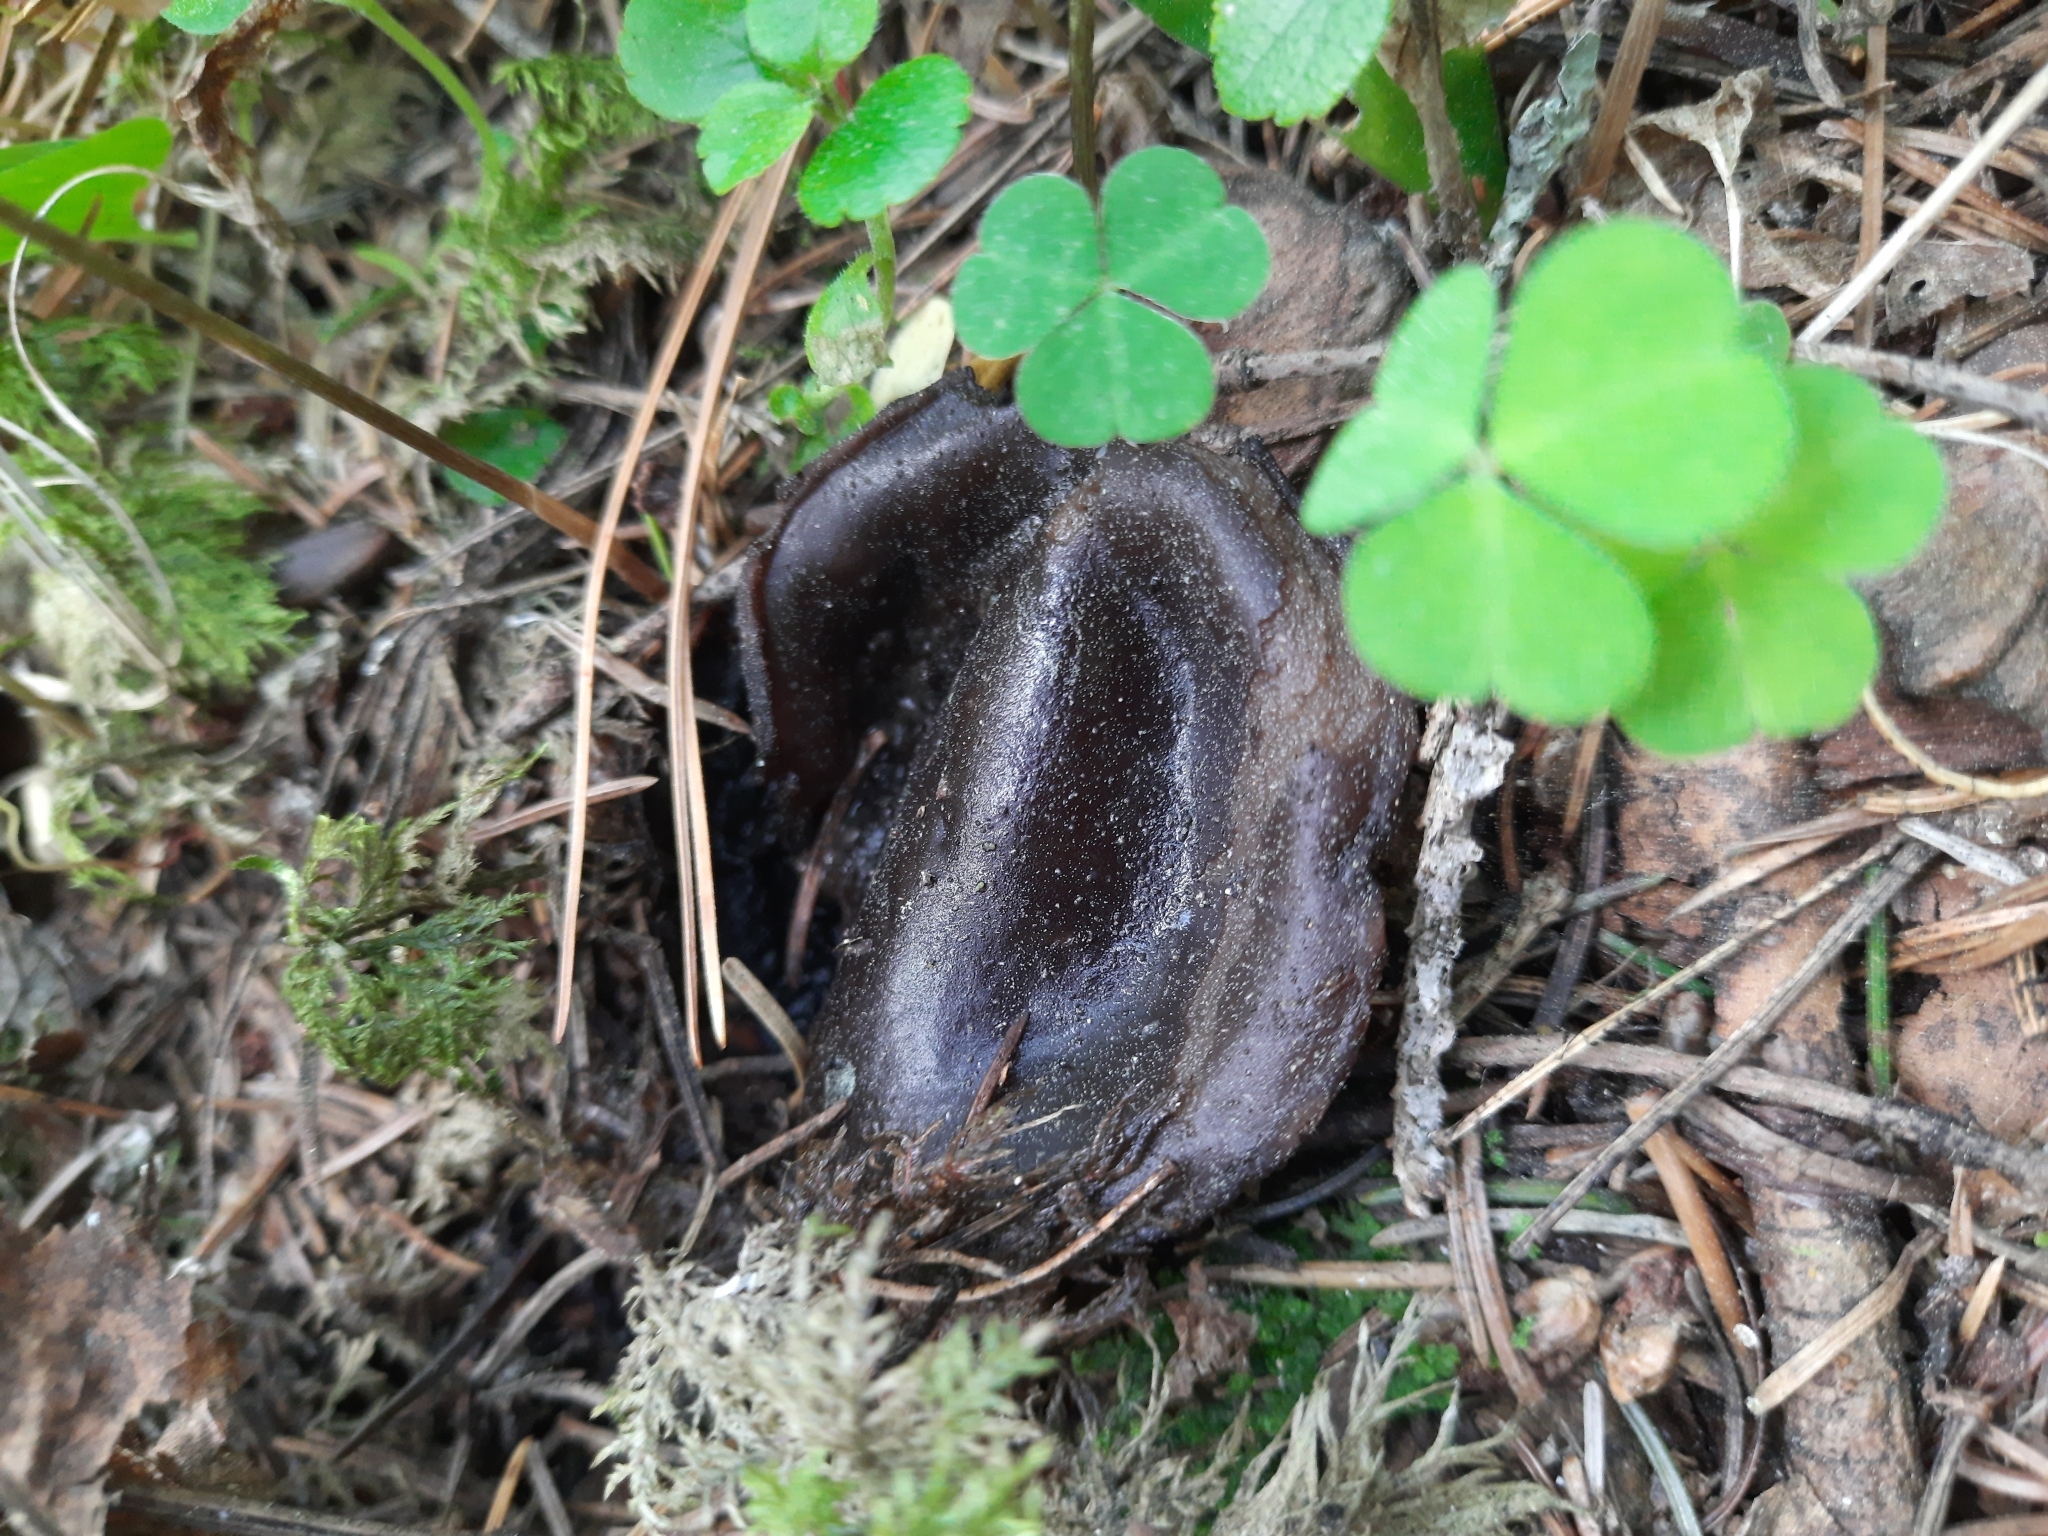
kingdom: Fungi
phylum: Ascomycota
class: Pezizomycetes
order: Pezizales
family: Sarcosomataceae
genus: Sarcosoma
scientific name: Sarcosoma globosum
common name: Charred-pancake cup
